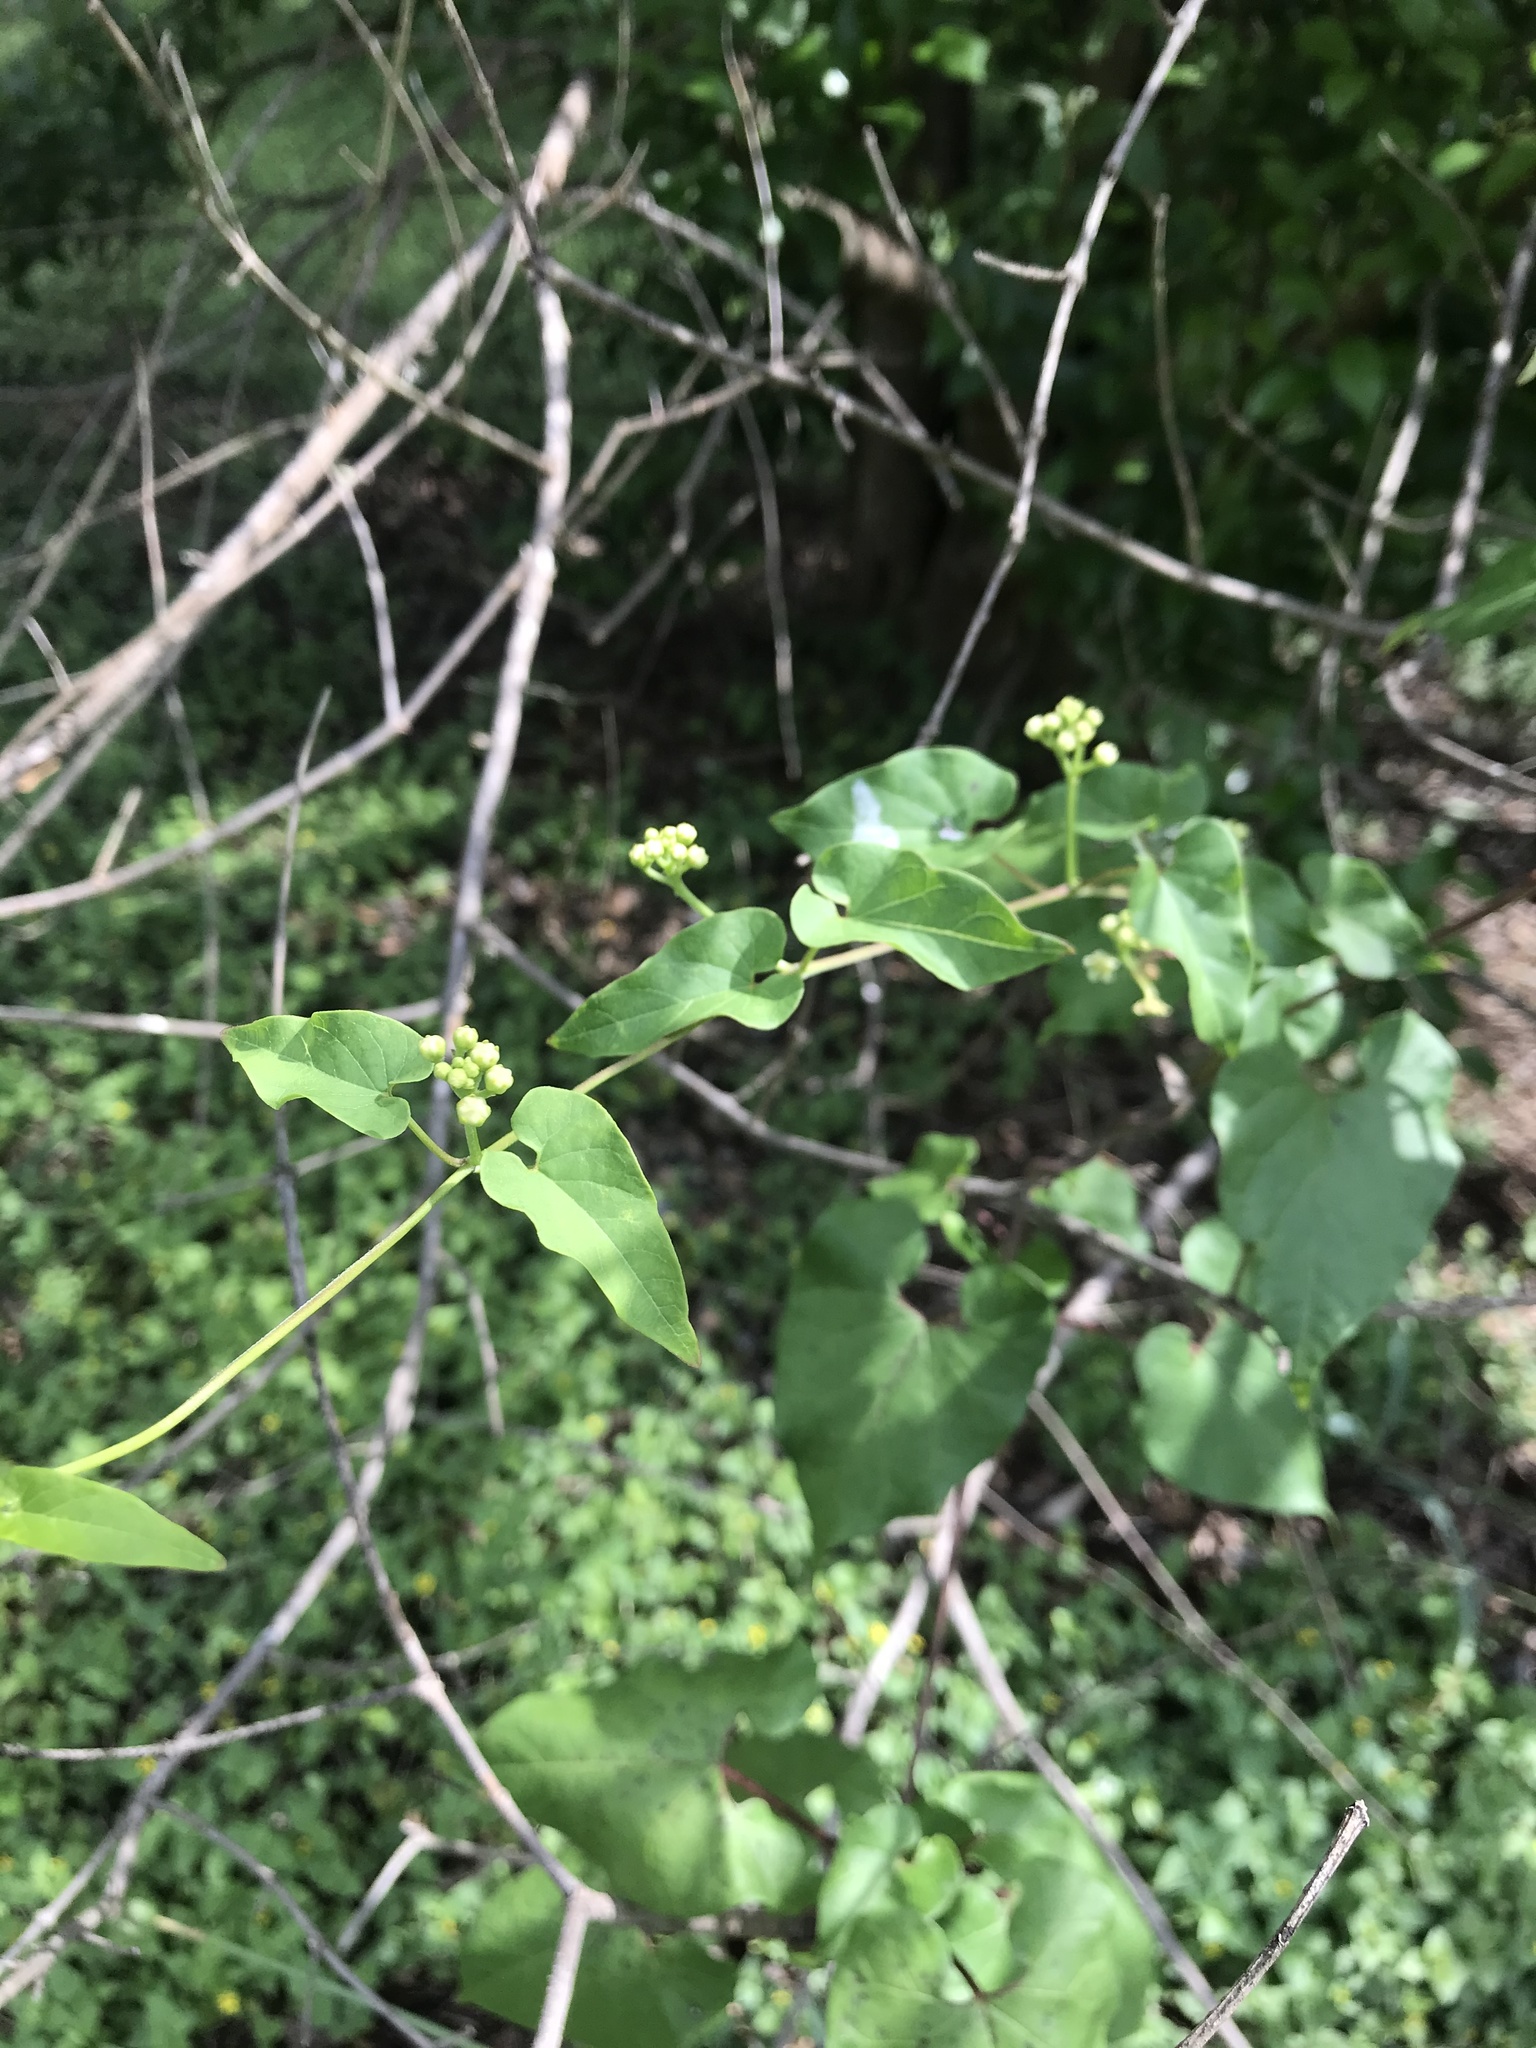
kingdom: Plantae
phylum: Tracheophyta
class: Magnoliopsida
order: Gentianales
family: Apocynaceae
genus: Cynanchum
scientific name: Cynanchum racemosum
